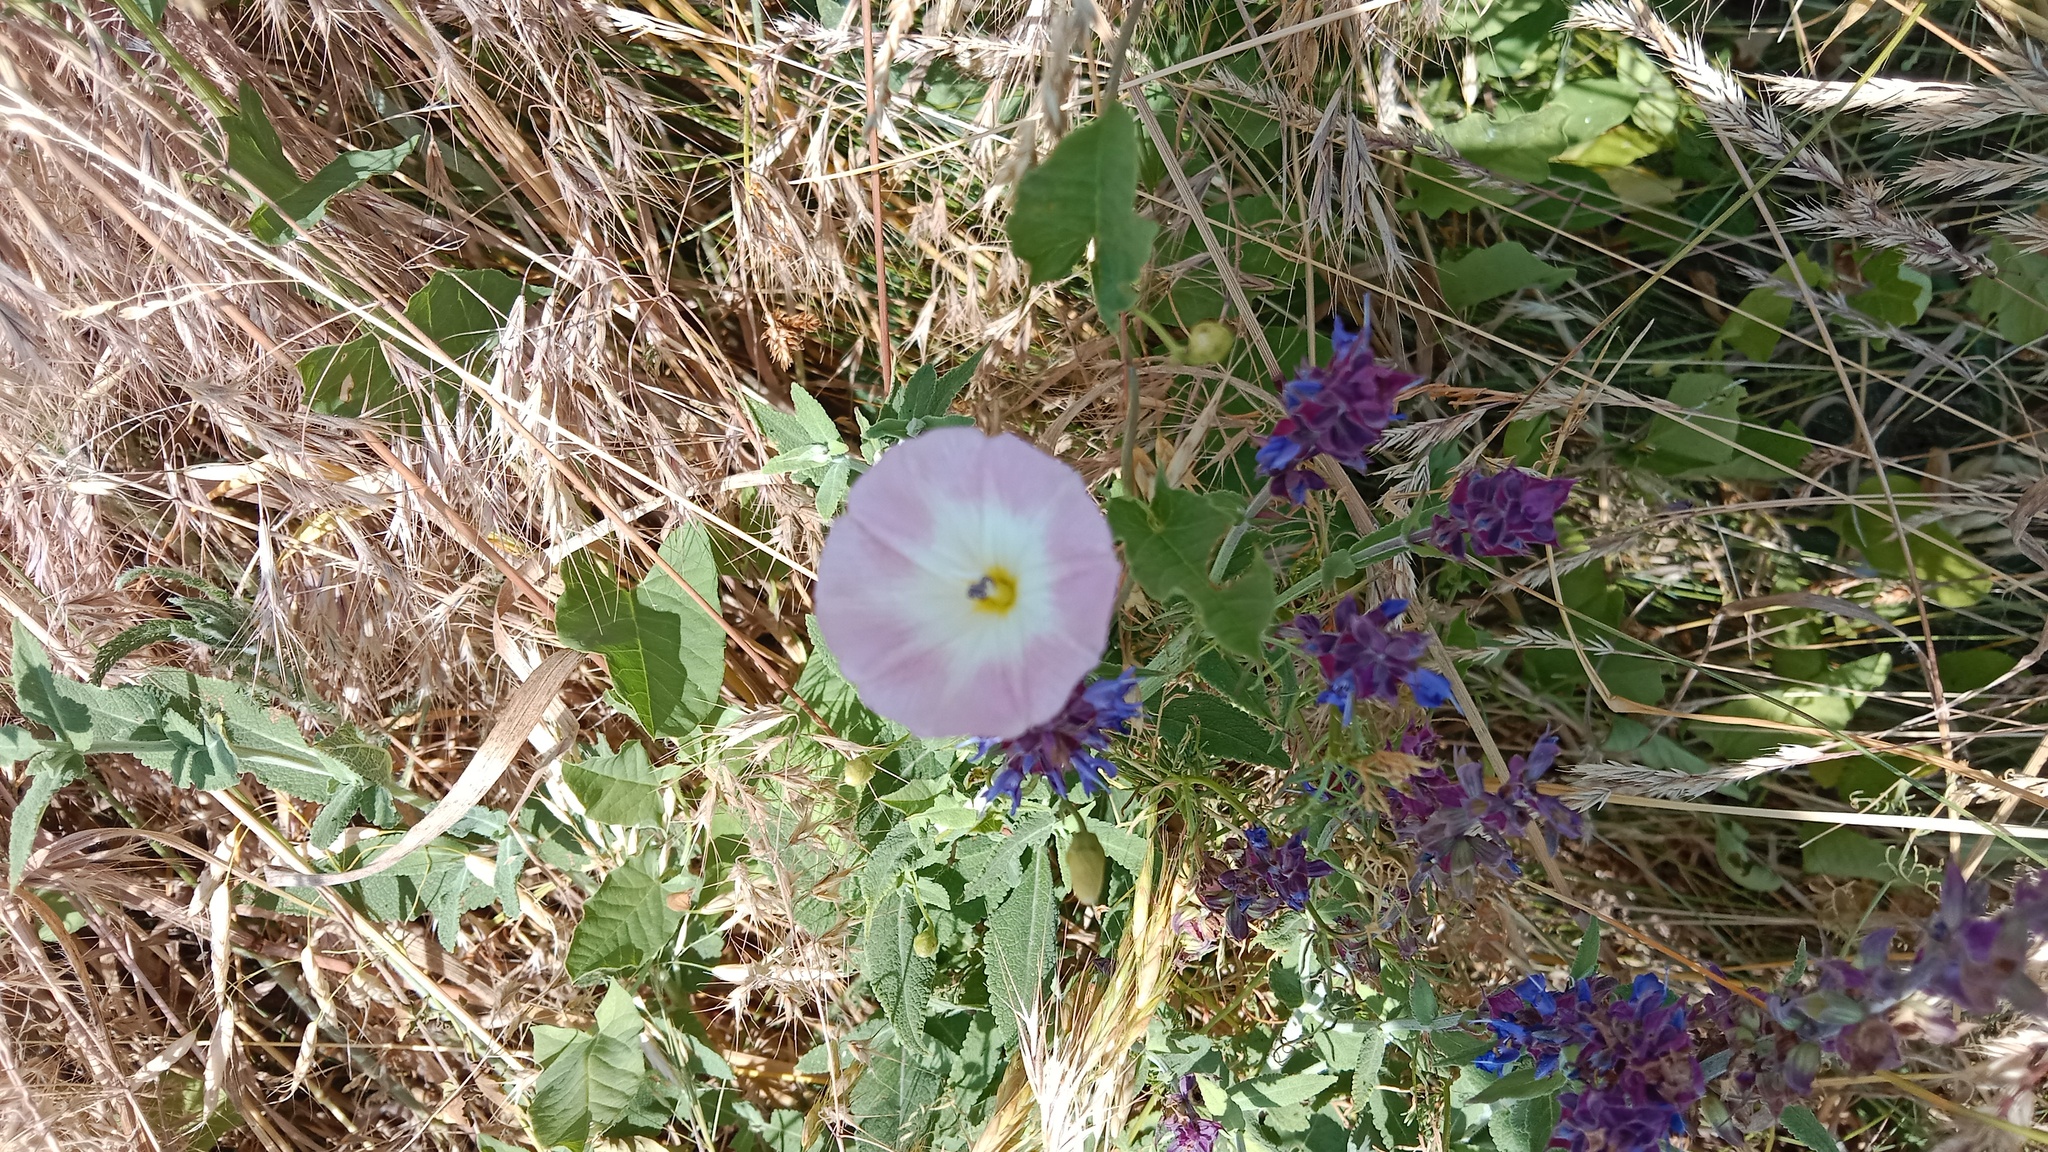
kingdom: Plantae
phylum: Tracheophyta
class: Magnoliopsida
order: Solanales
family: Convolvulaceae
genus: Convolvulus
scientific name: Convolvulus arvensis
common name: Field bindweed
